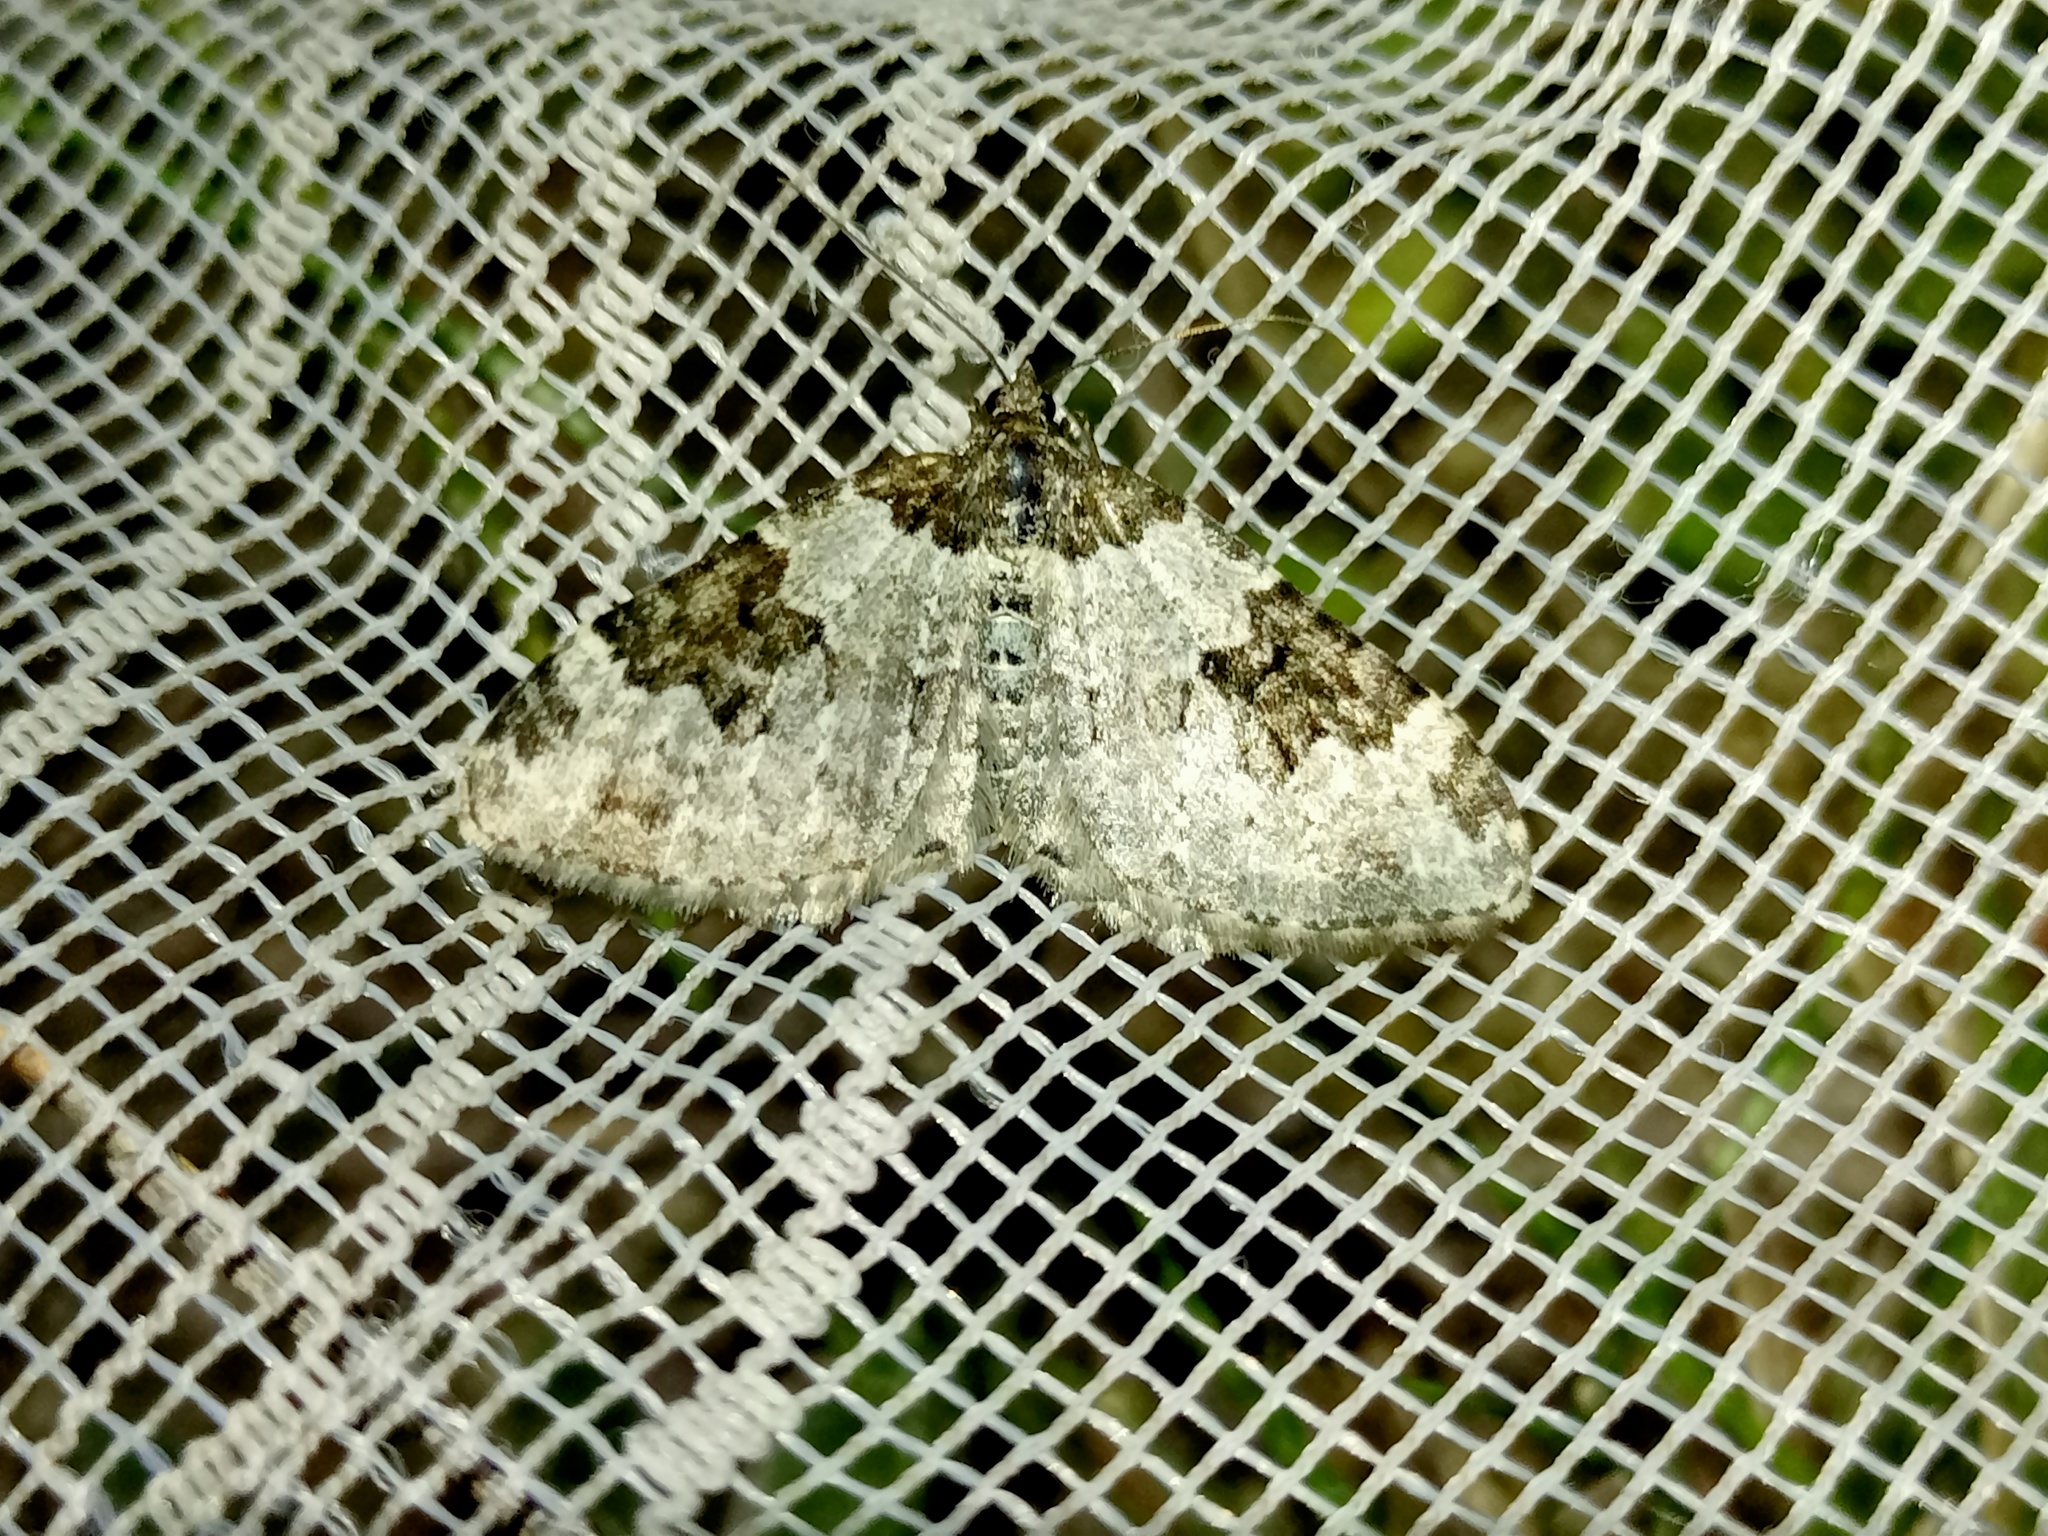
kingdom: Animalia
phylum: Arthropoda
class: Insecta
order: Lepidoptera
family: Geometridae
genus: Xanthorhoe
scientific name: Xanthorhoe fluctuata
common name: Garden carpet
